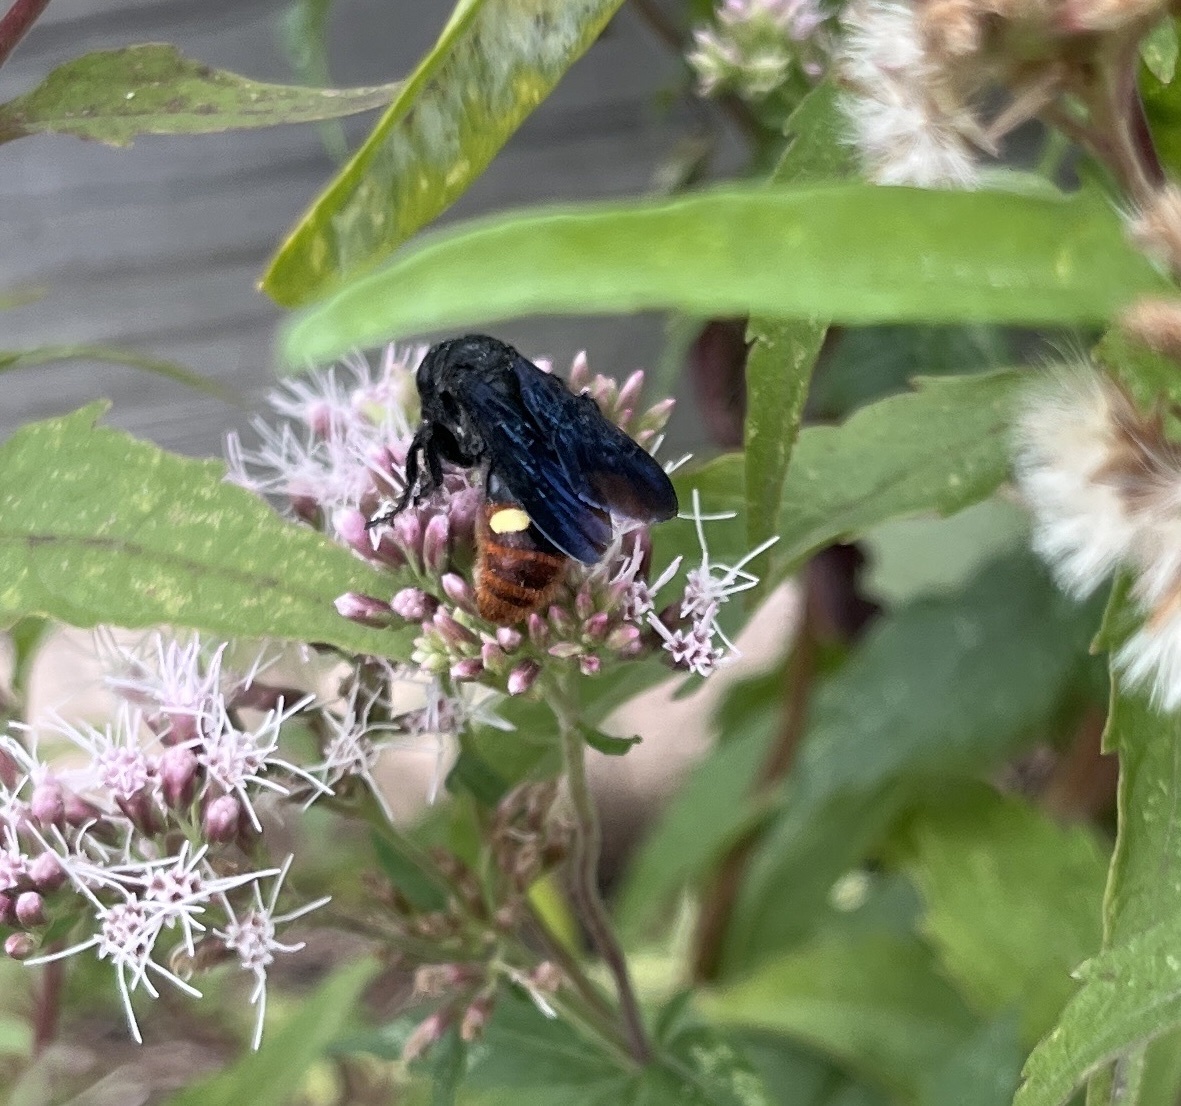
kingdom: Animalia
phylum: Arthropoda
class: Insecta
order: Hymenoptera
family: Scoliidae
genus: Scolia
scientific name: Scolia dubia
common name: Blue-winged scoliid wasp
